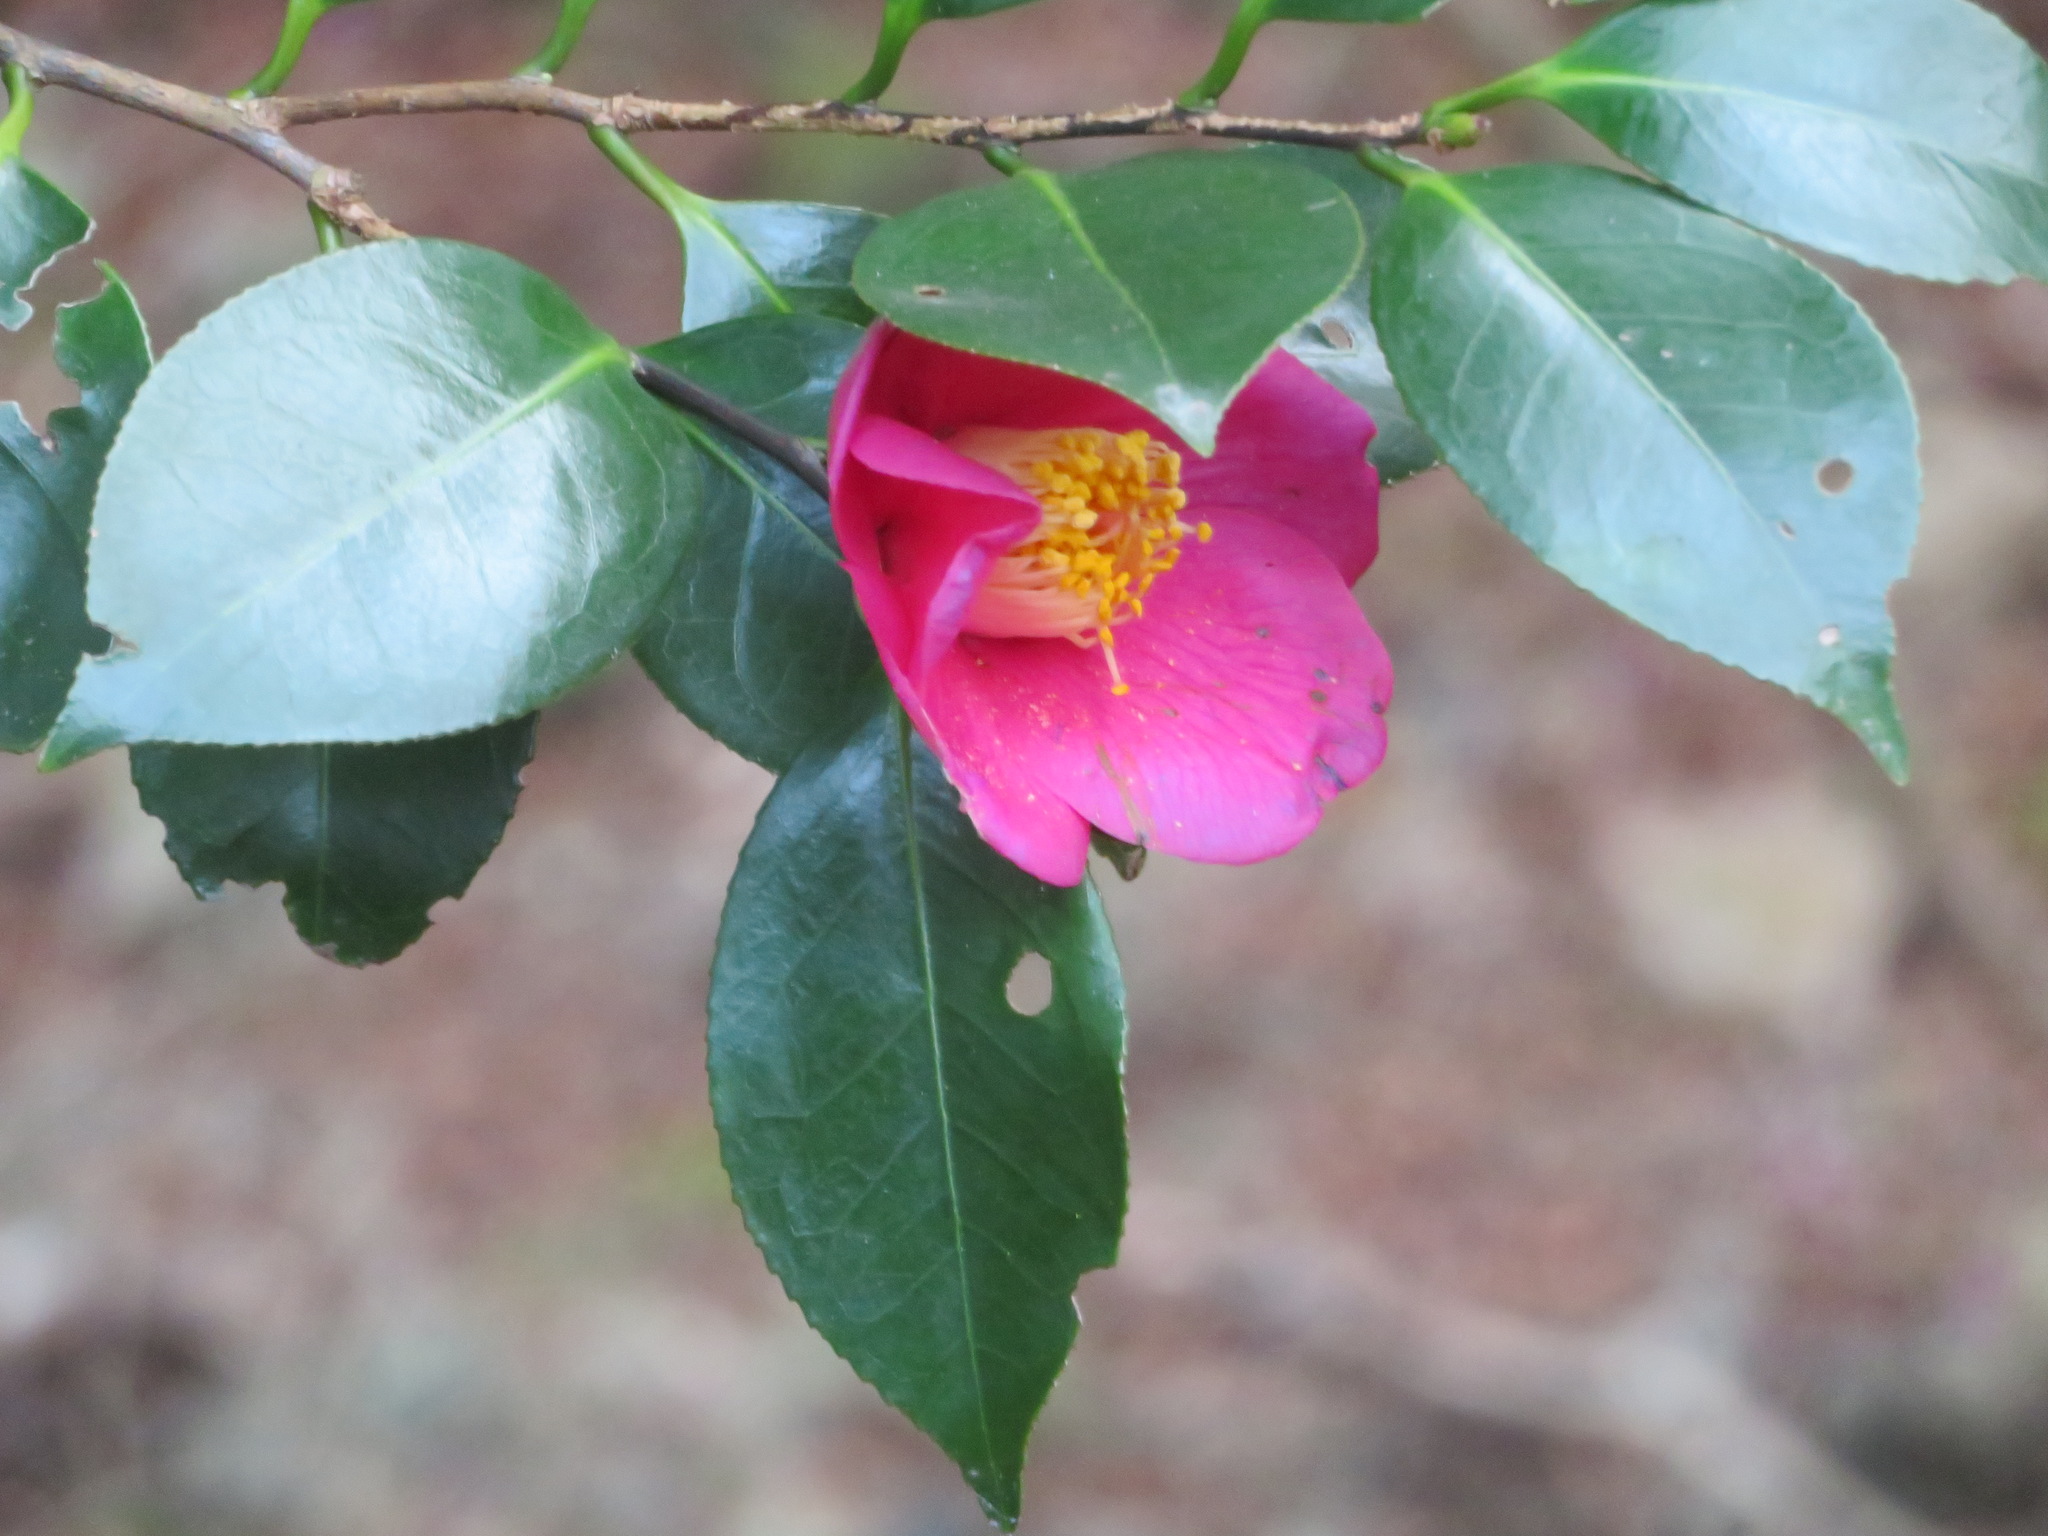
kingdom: Plantae
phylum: Tracheophyta
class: Magnoliopsida
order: Ericales
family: Theaceae
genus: Camellia
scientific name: Camellia japonica
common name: Camellia
